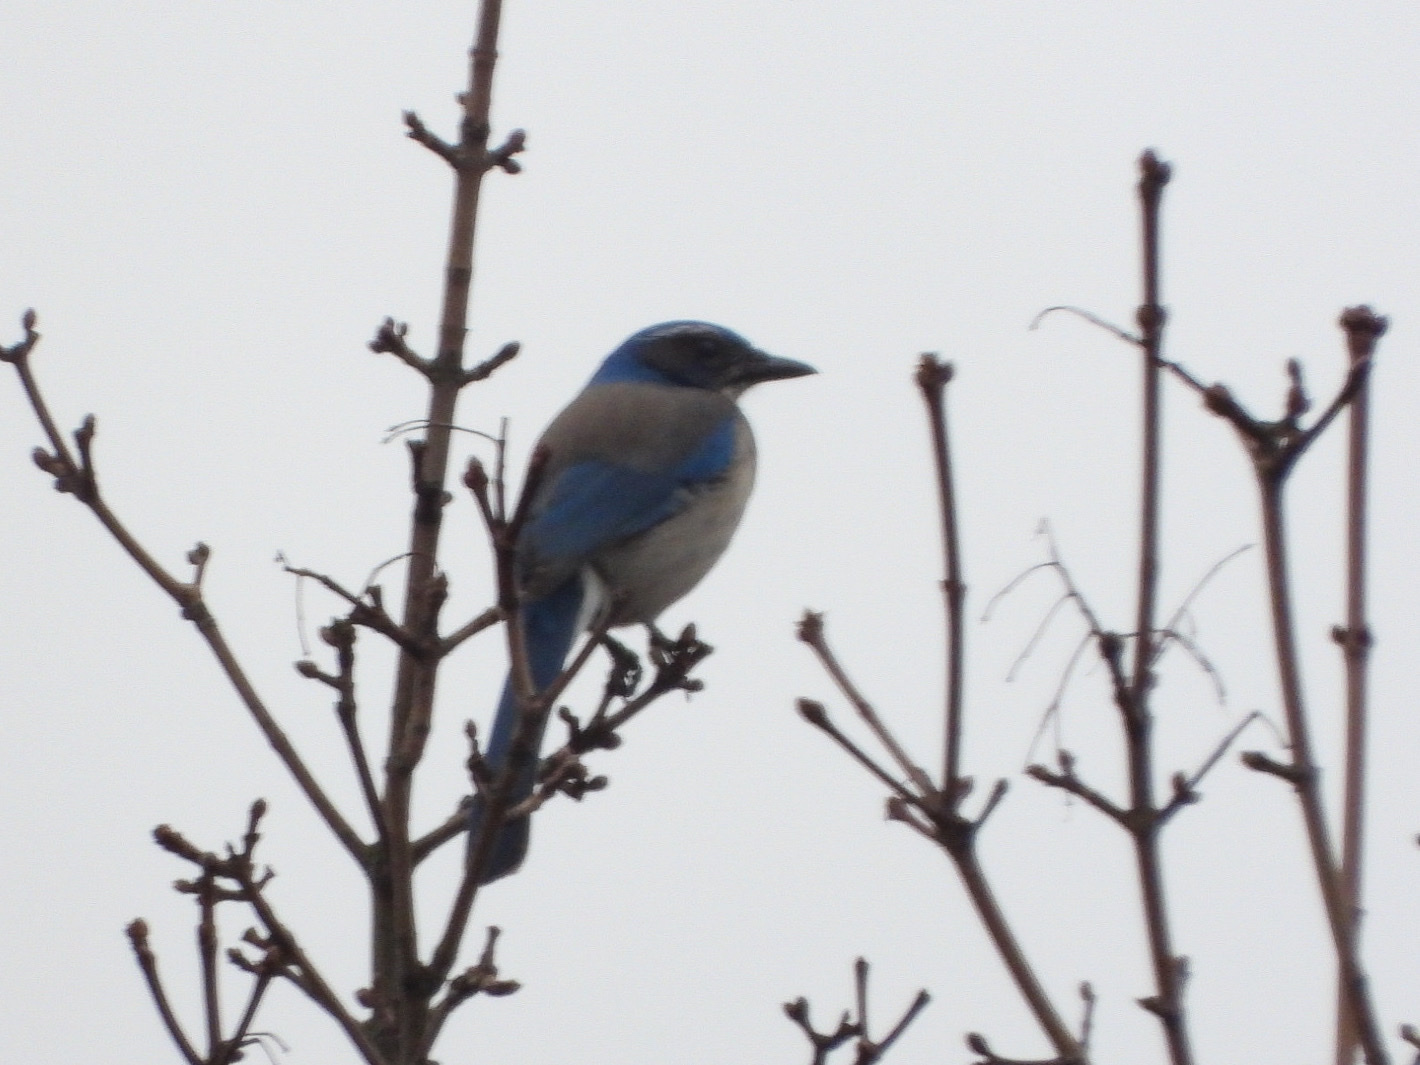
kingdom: Animalia
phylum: Chordata
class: Aves
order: Passeriformes
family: Corvidae
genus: Aphelocoma
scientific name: Aphelocoma californica
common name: California scrub-jay
